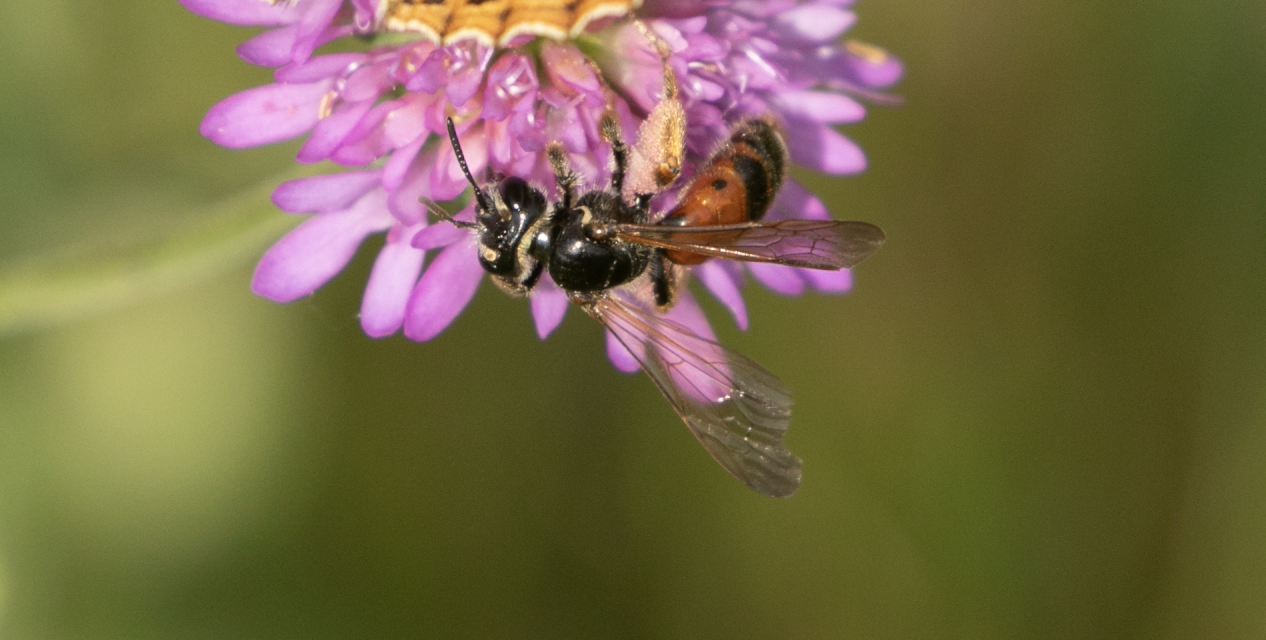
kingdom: Animalia
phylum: Arthropoda
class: Insecta
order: Hymenoptera
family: Andrenidae
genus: Andrena
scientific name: Andrena hattorfiana
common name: Large scabious mining bee
